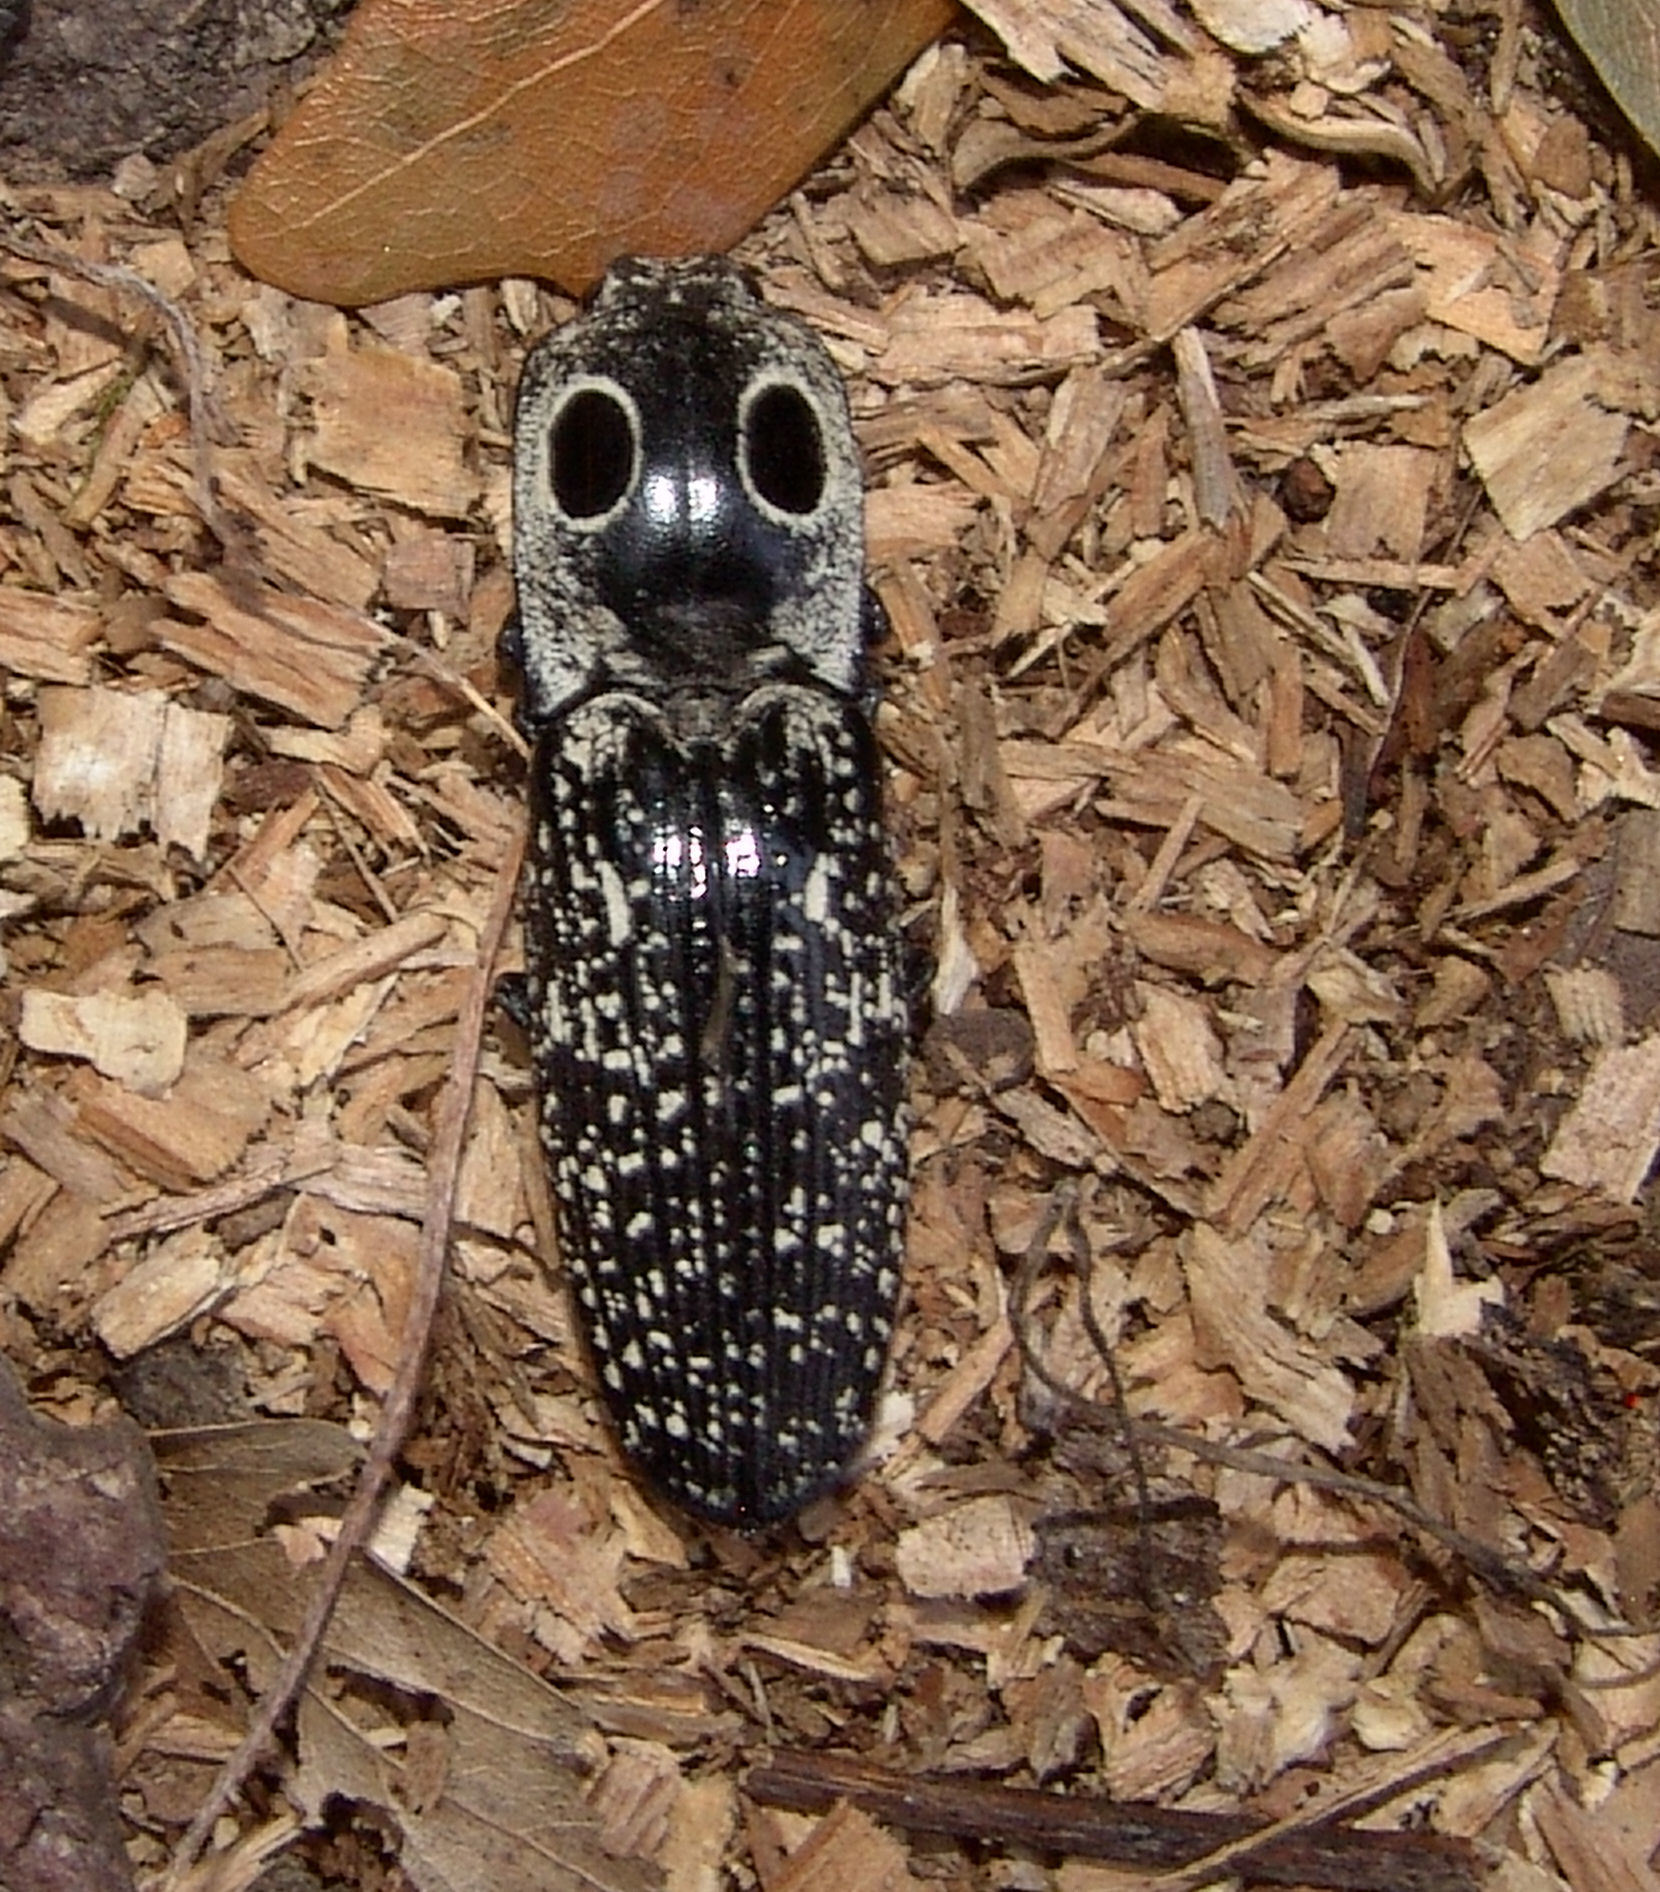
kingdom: Animalia
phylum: Arthropoda
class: Insecta
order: Coleoptera
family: Elateridae
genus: Alaus
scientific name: Alaus oculatus
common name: Eastern eyed click beetle
